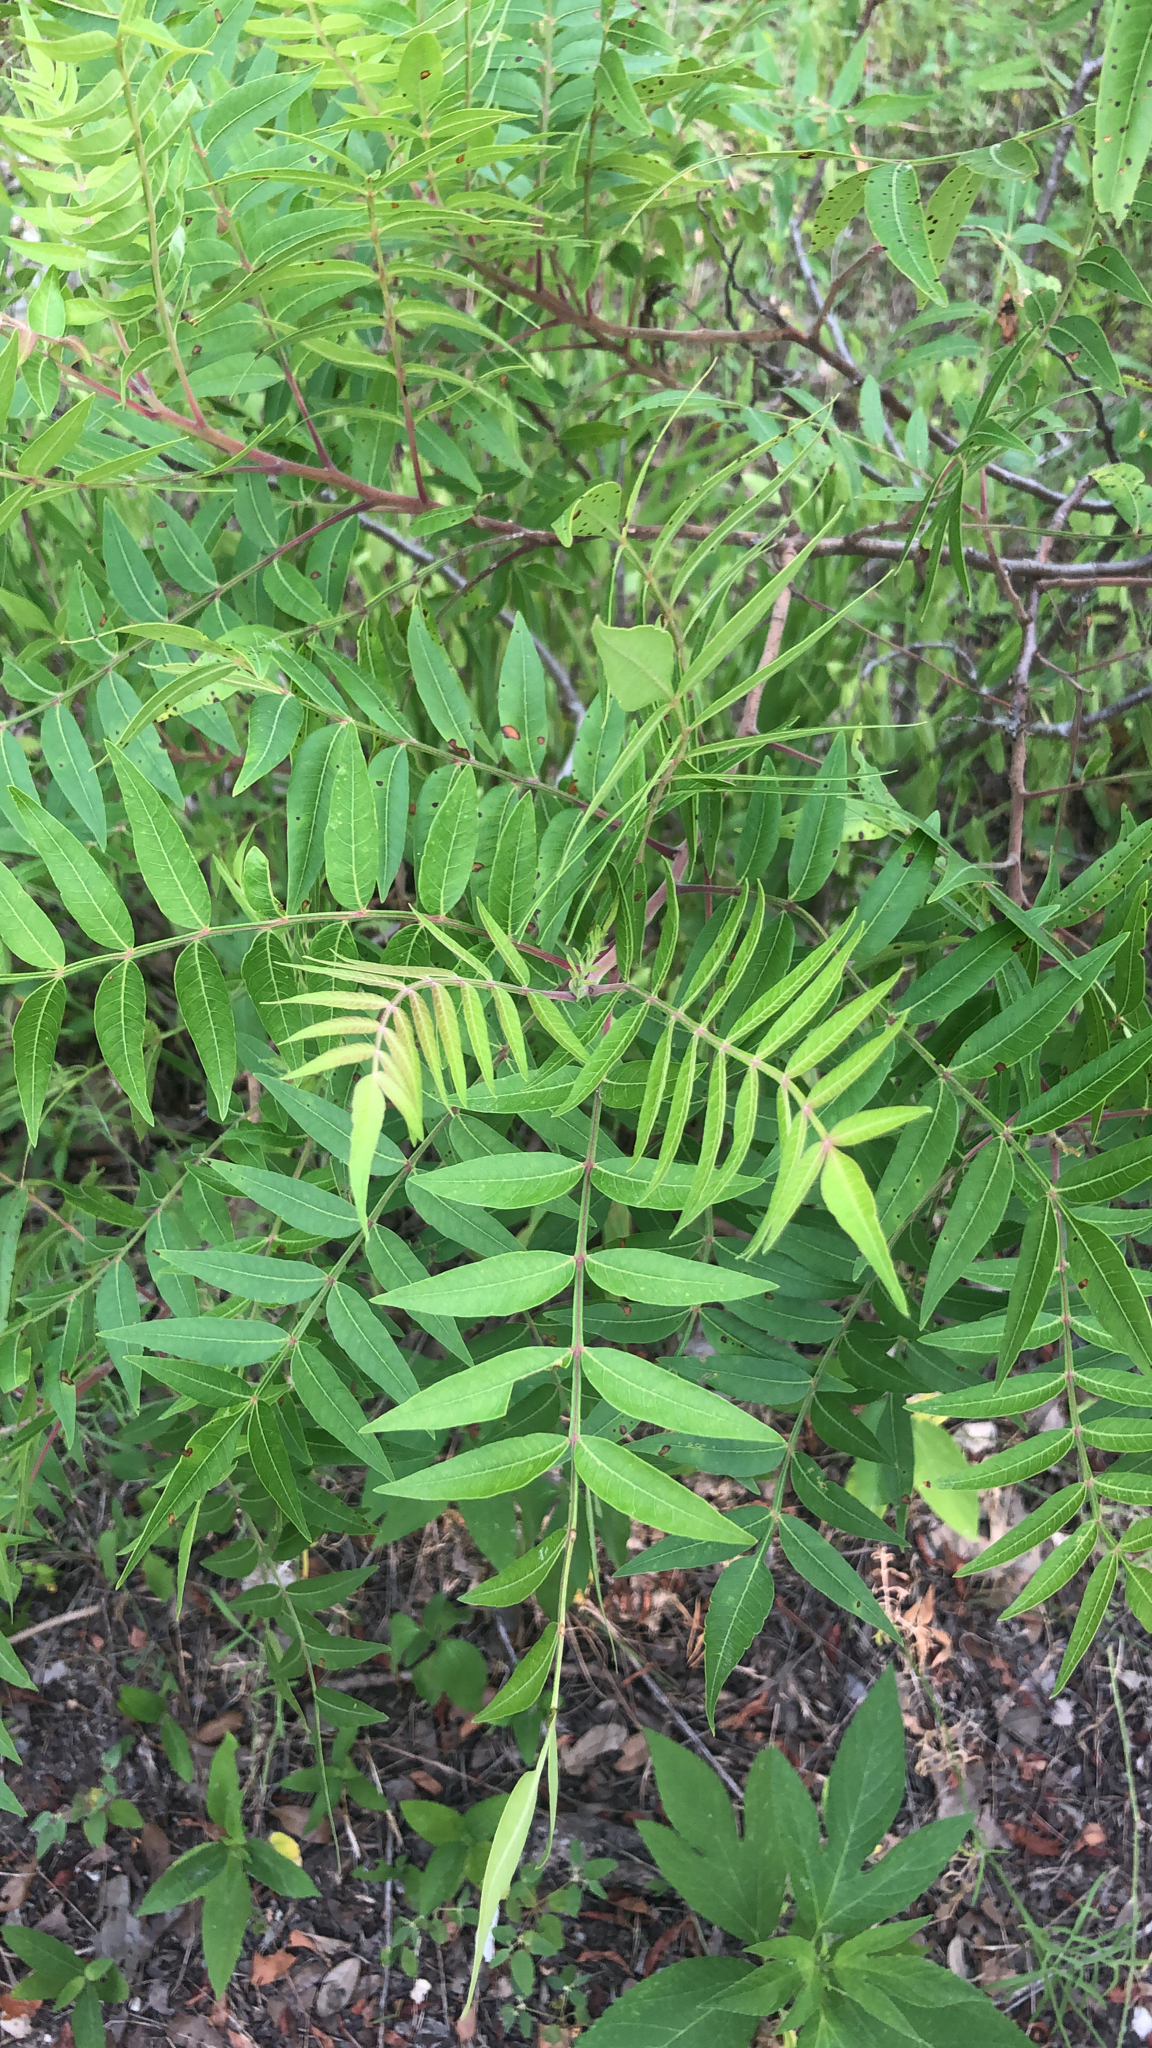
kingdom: Plantae
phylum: Tracheophyta
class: Magnoliopsida
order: Sapindales
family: Anacardiaceae
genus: Rhus
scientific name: Rhus lanceolata
